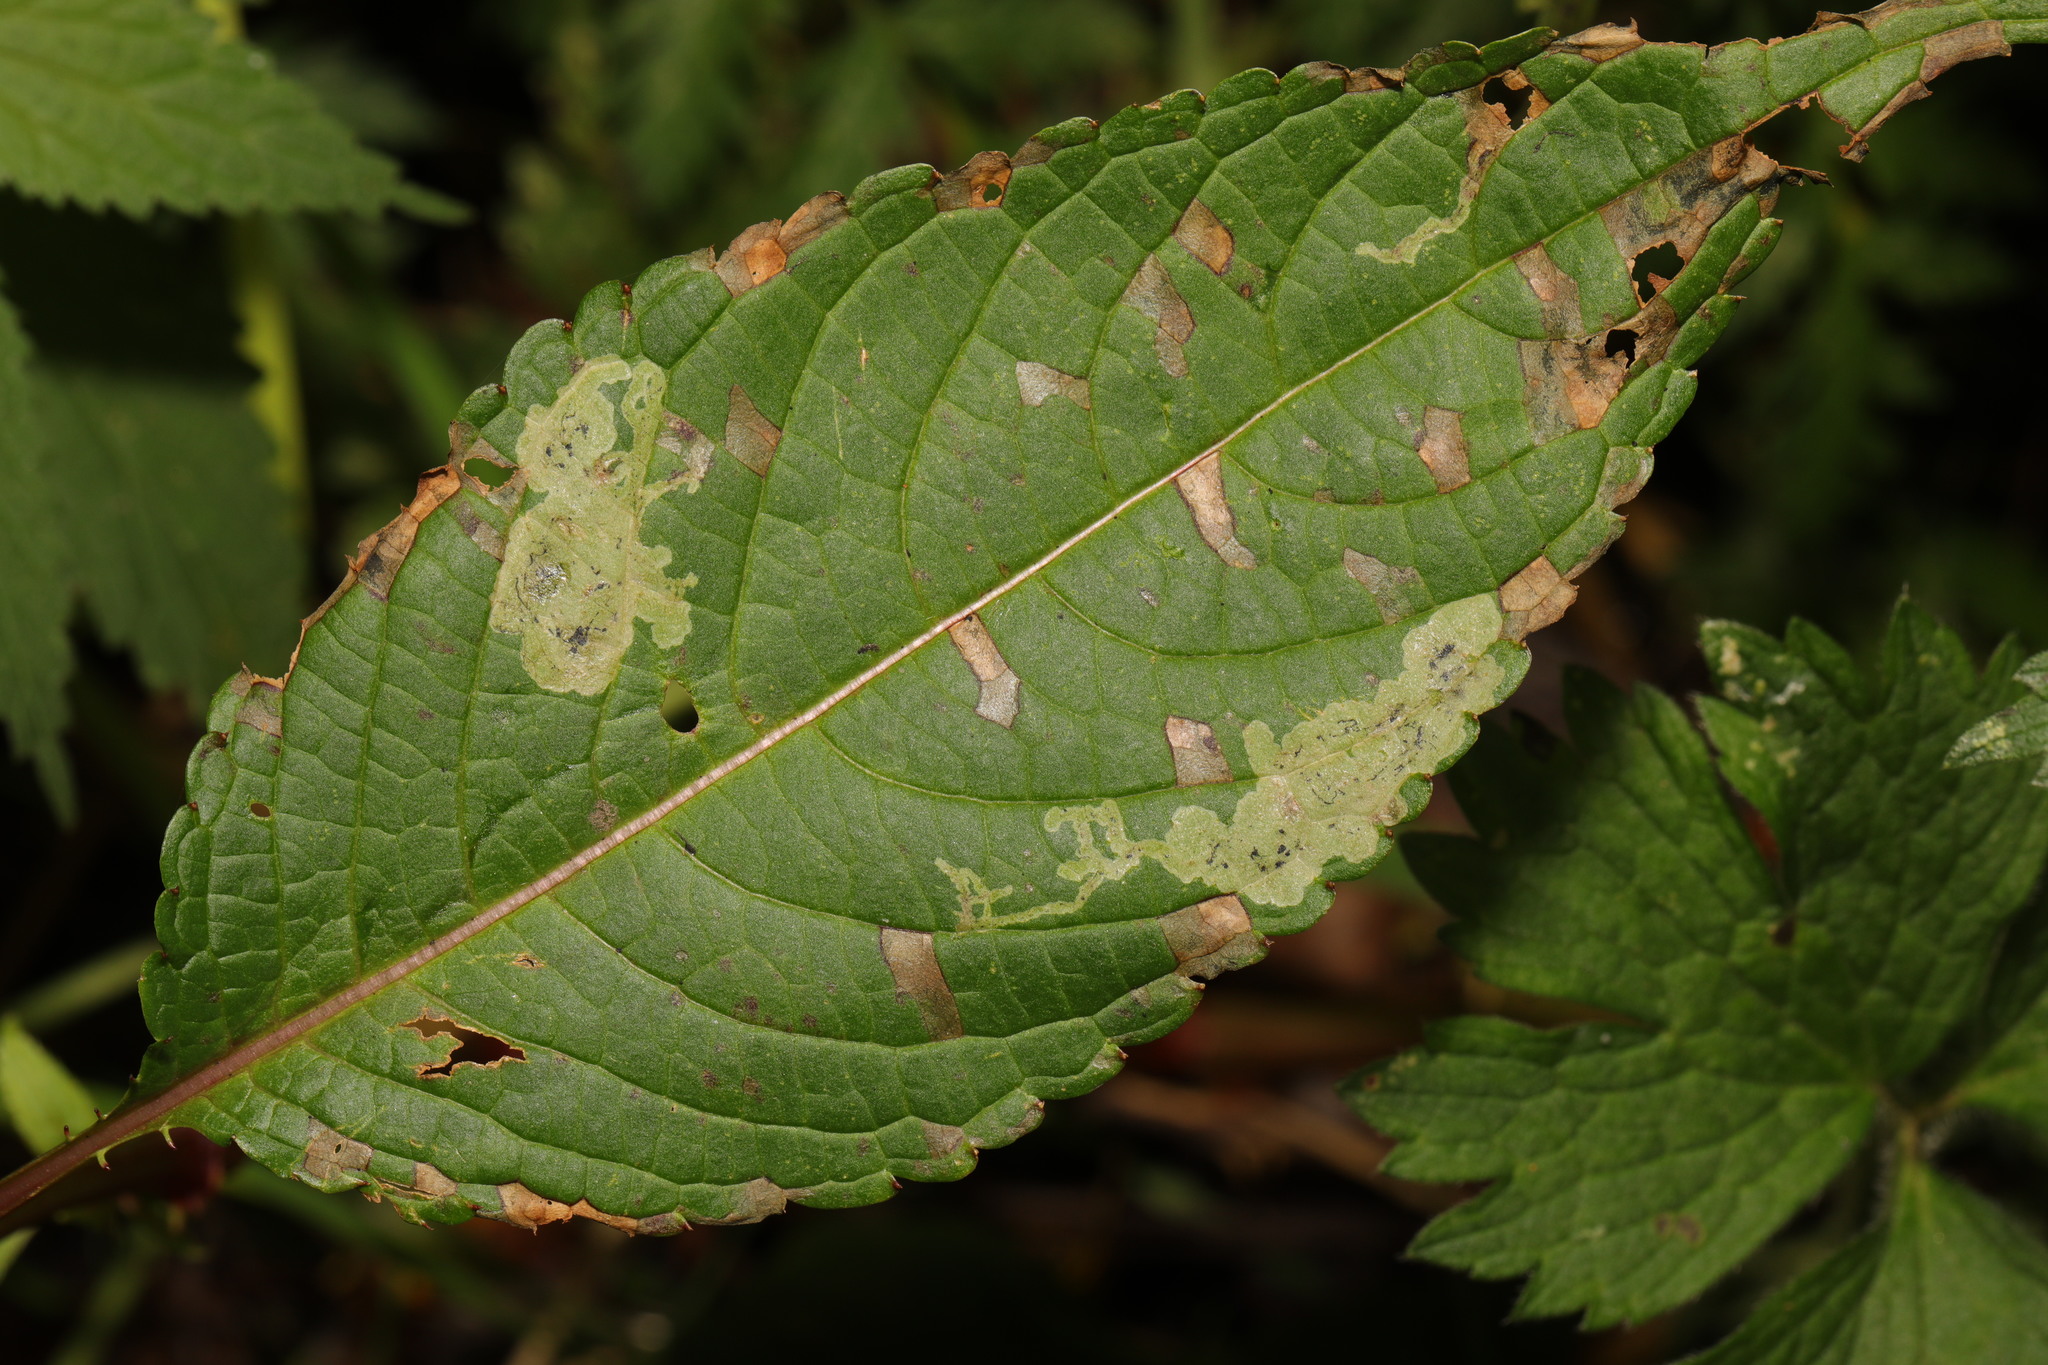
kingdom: Animalia
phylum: Arthropoda
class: Insecta
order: Diptera
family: Agromyzidae
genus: Phytoliriomyza
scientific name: Phytoliriomyza melampyga
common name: Jewelweed leaf-miner fly
